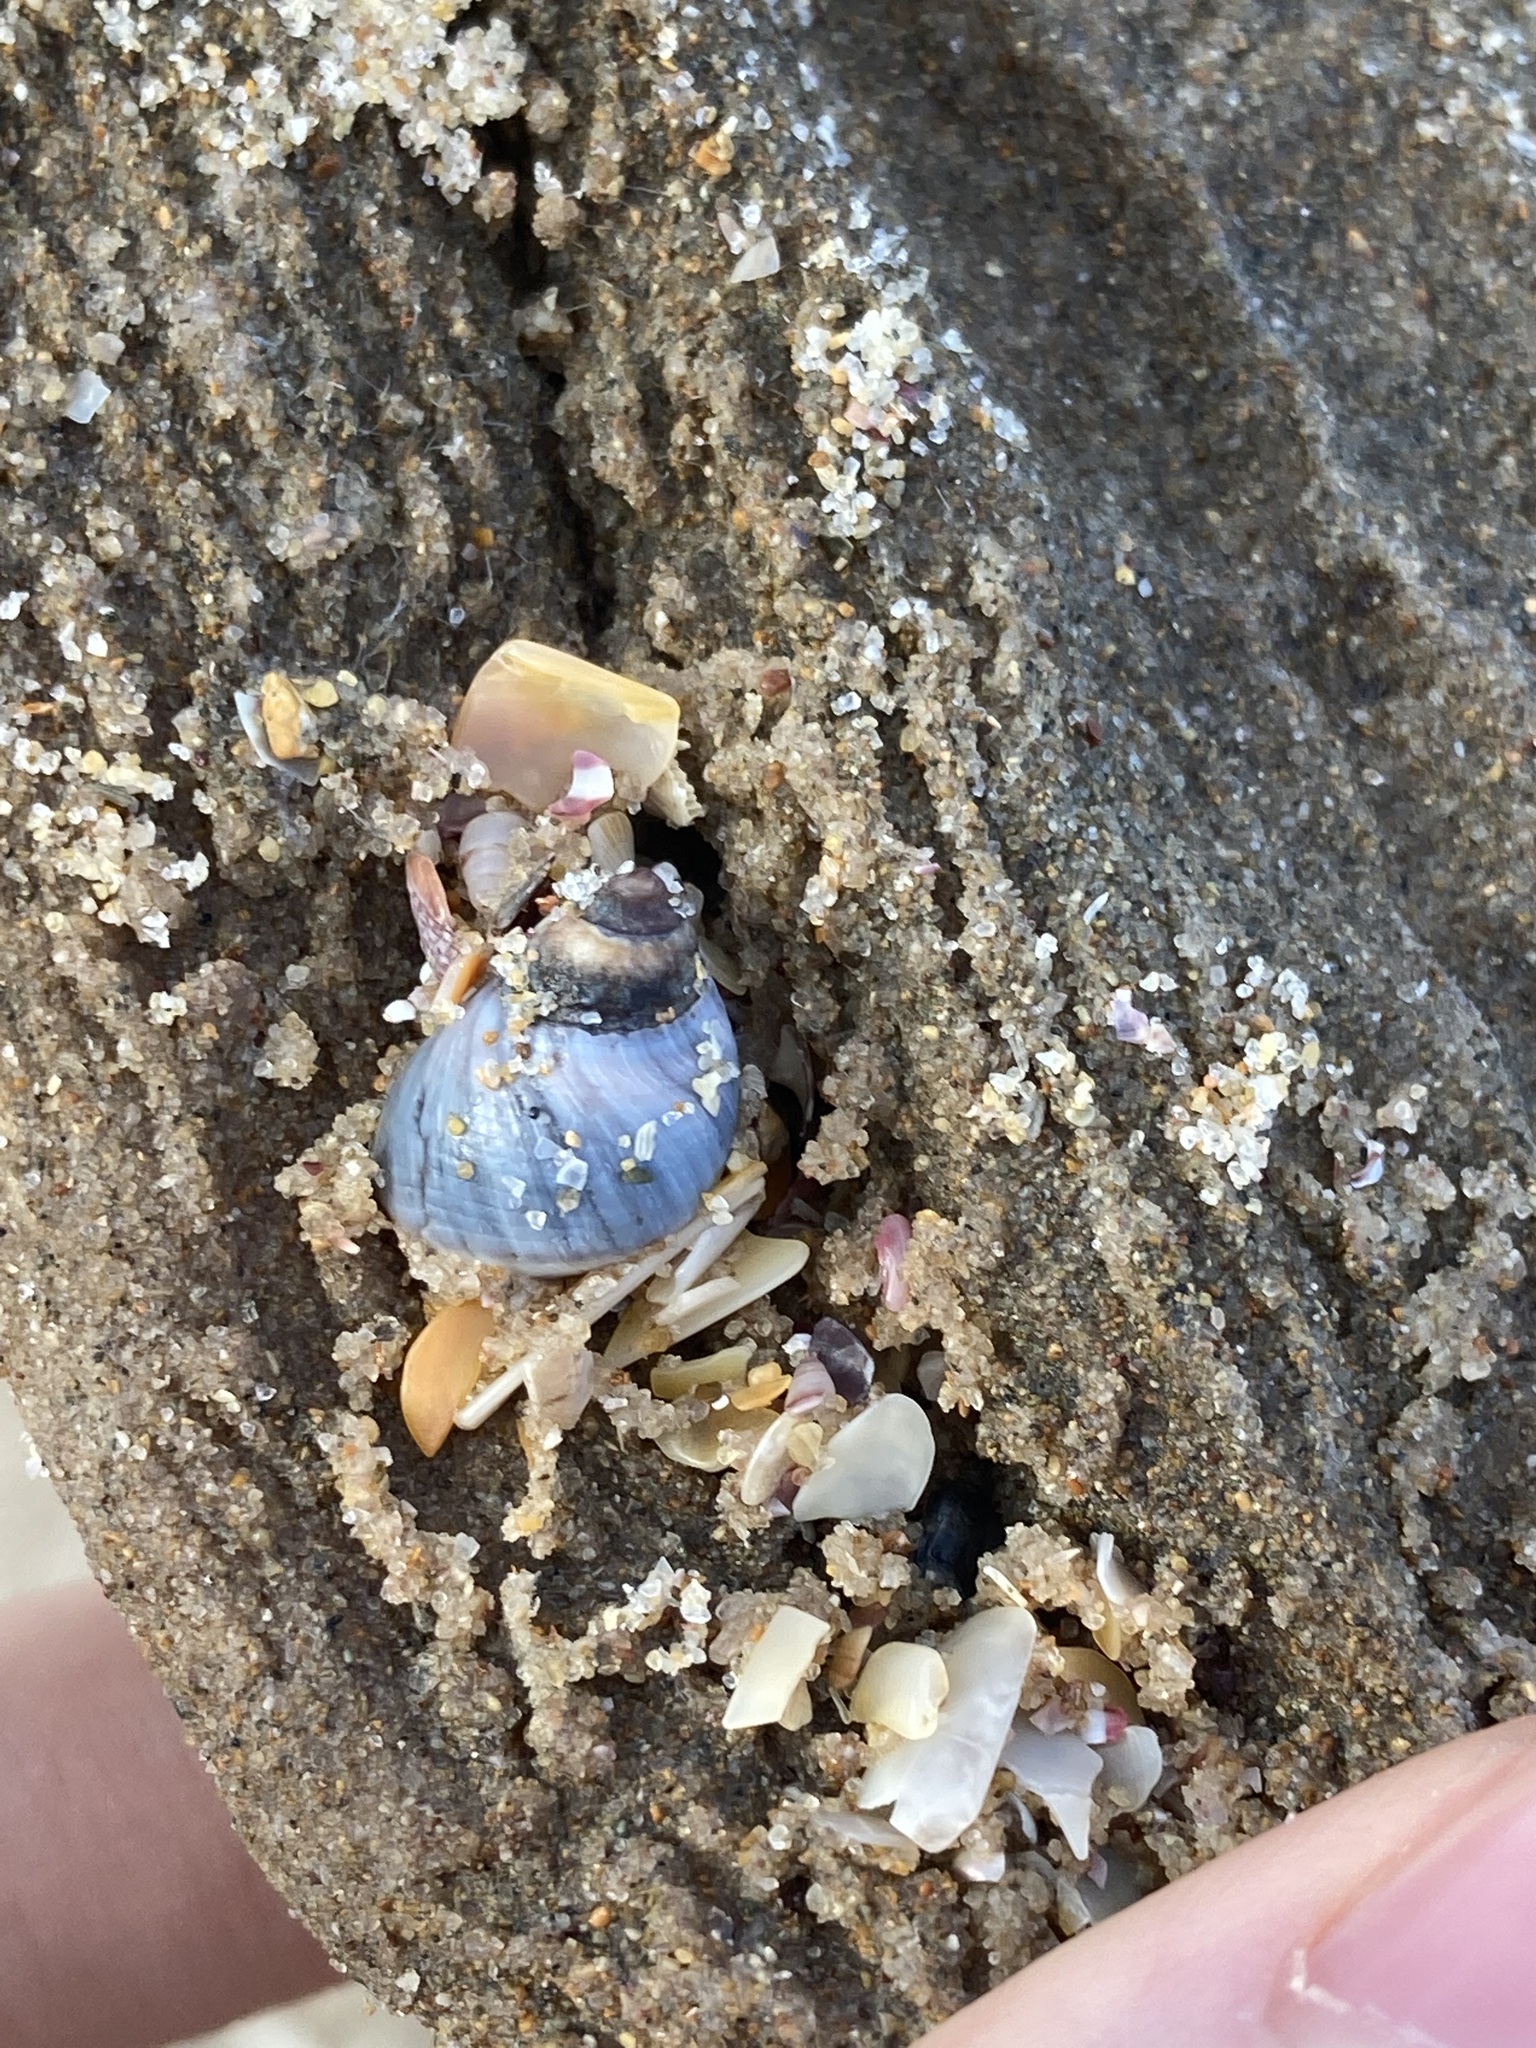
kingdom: Animalia
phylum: Mollusca
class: Gastropoda
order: Littorinimorpha
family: Littorinidae
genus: Austrolittorina
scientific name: Austrolittorina unifasciata
